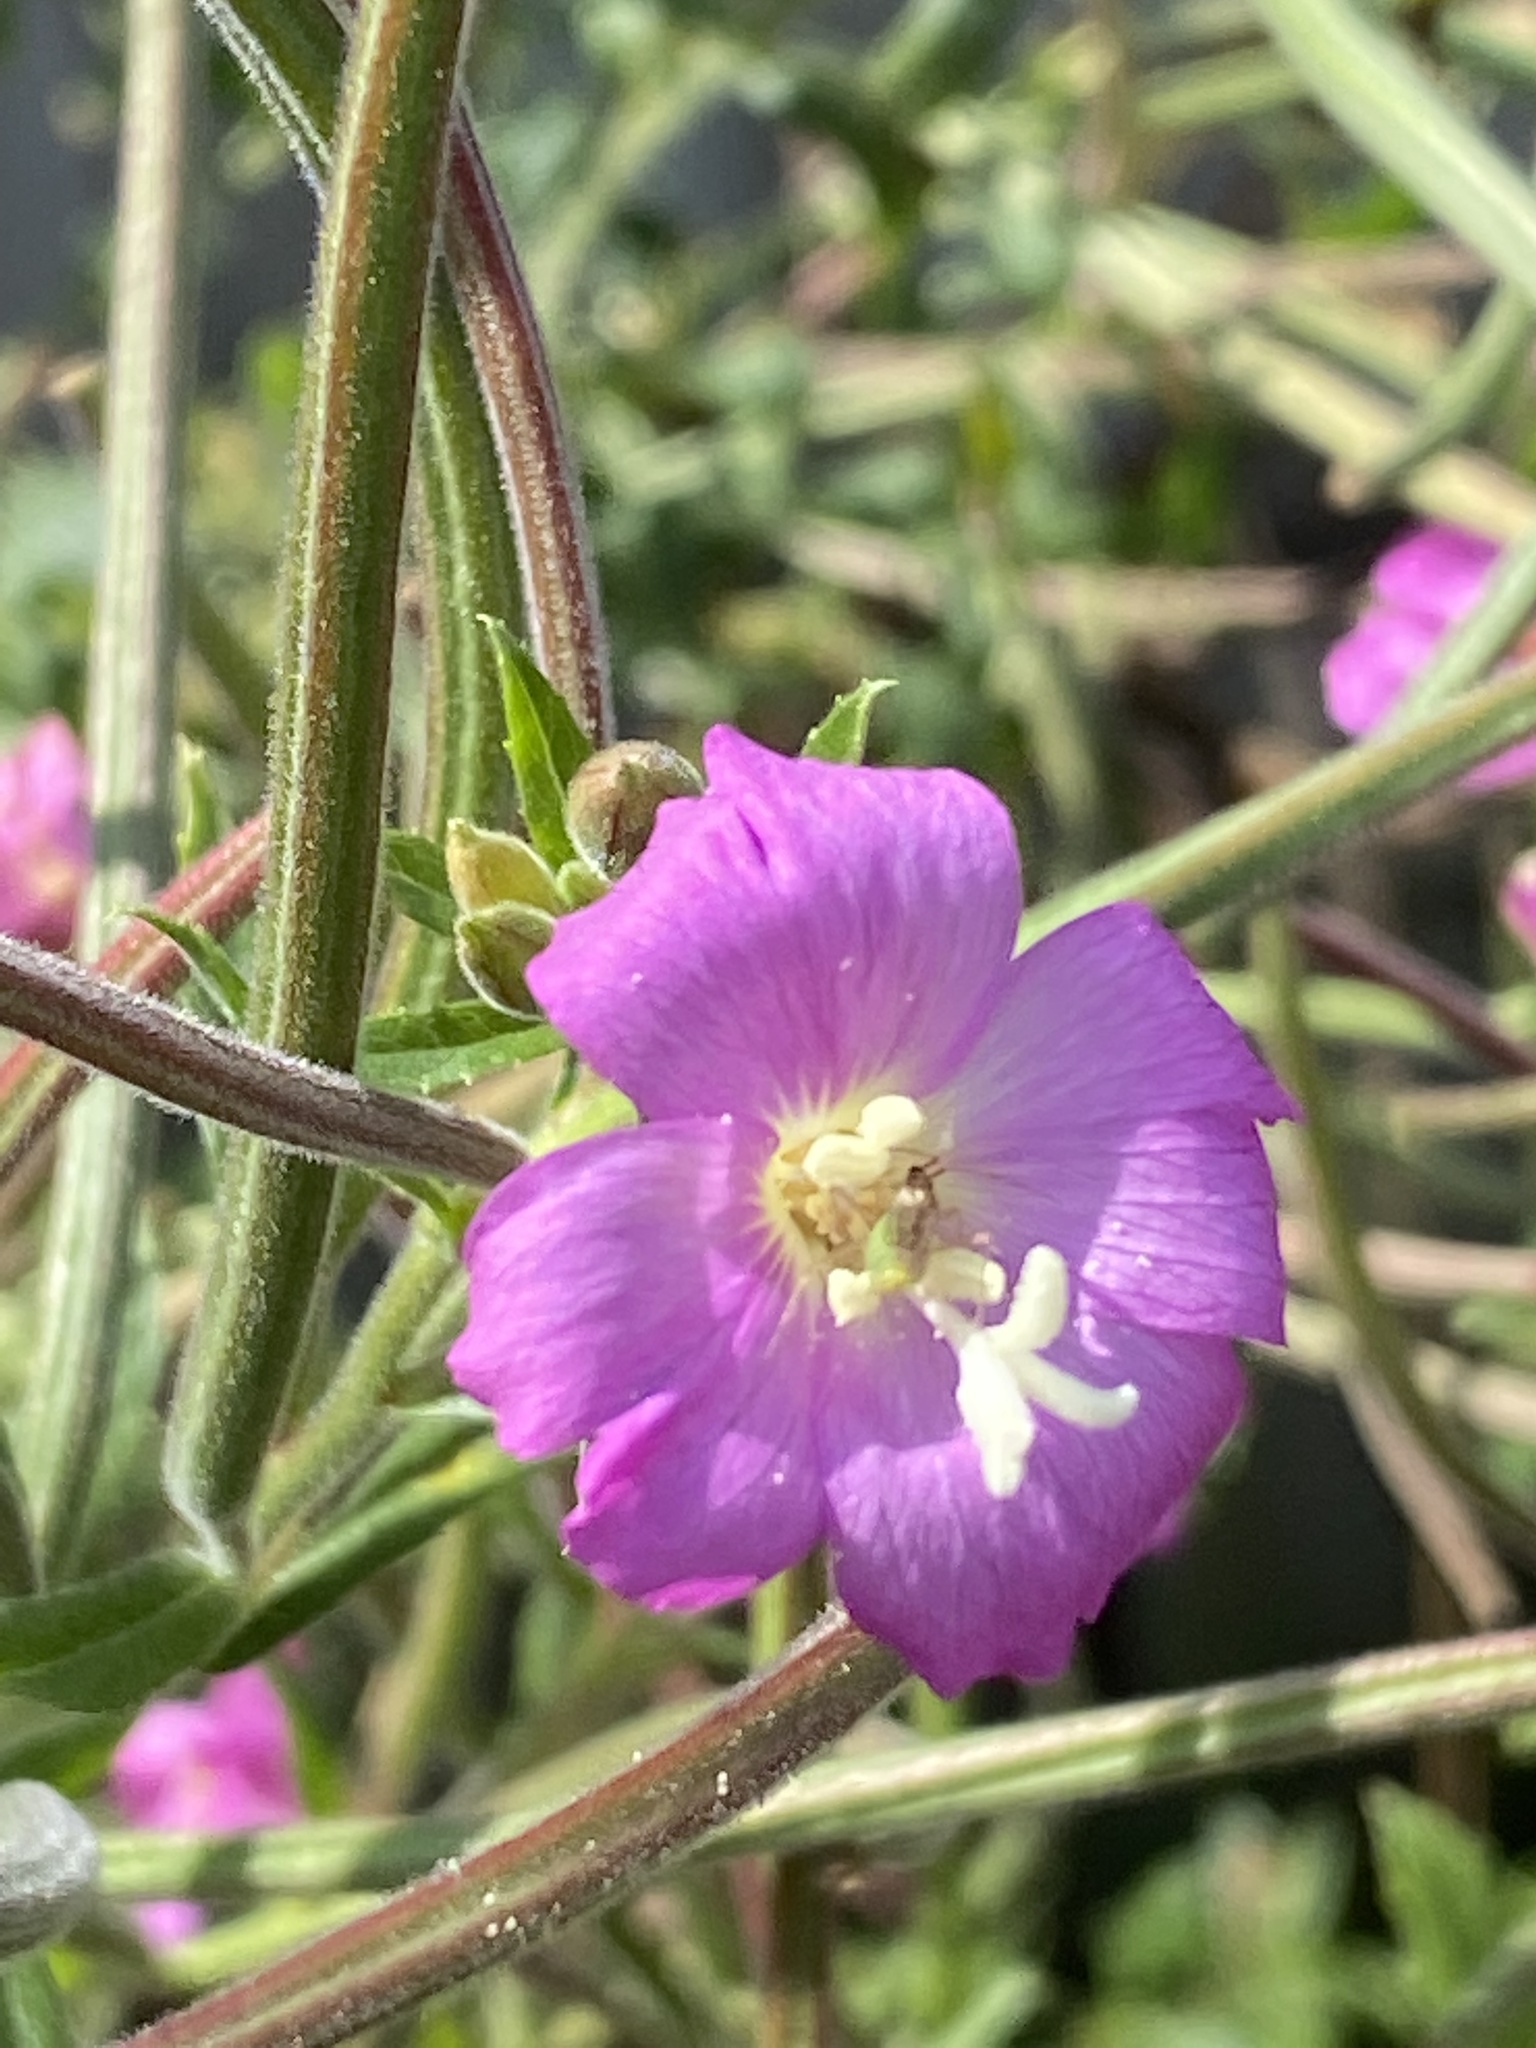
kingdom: Plantae
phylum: Tracheophyta
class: Magnoliopsida
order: Myrtales
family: Onagraceae
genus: Epilobium
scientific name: Epilobium hirsutum
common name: Great willowherb
